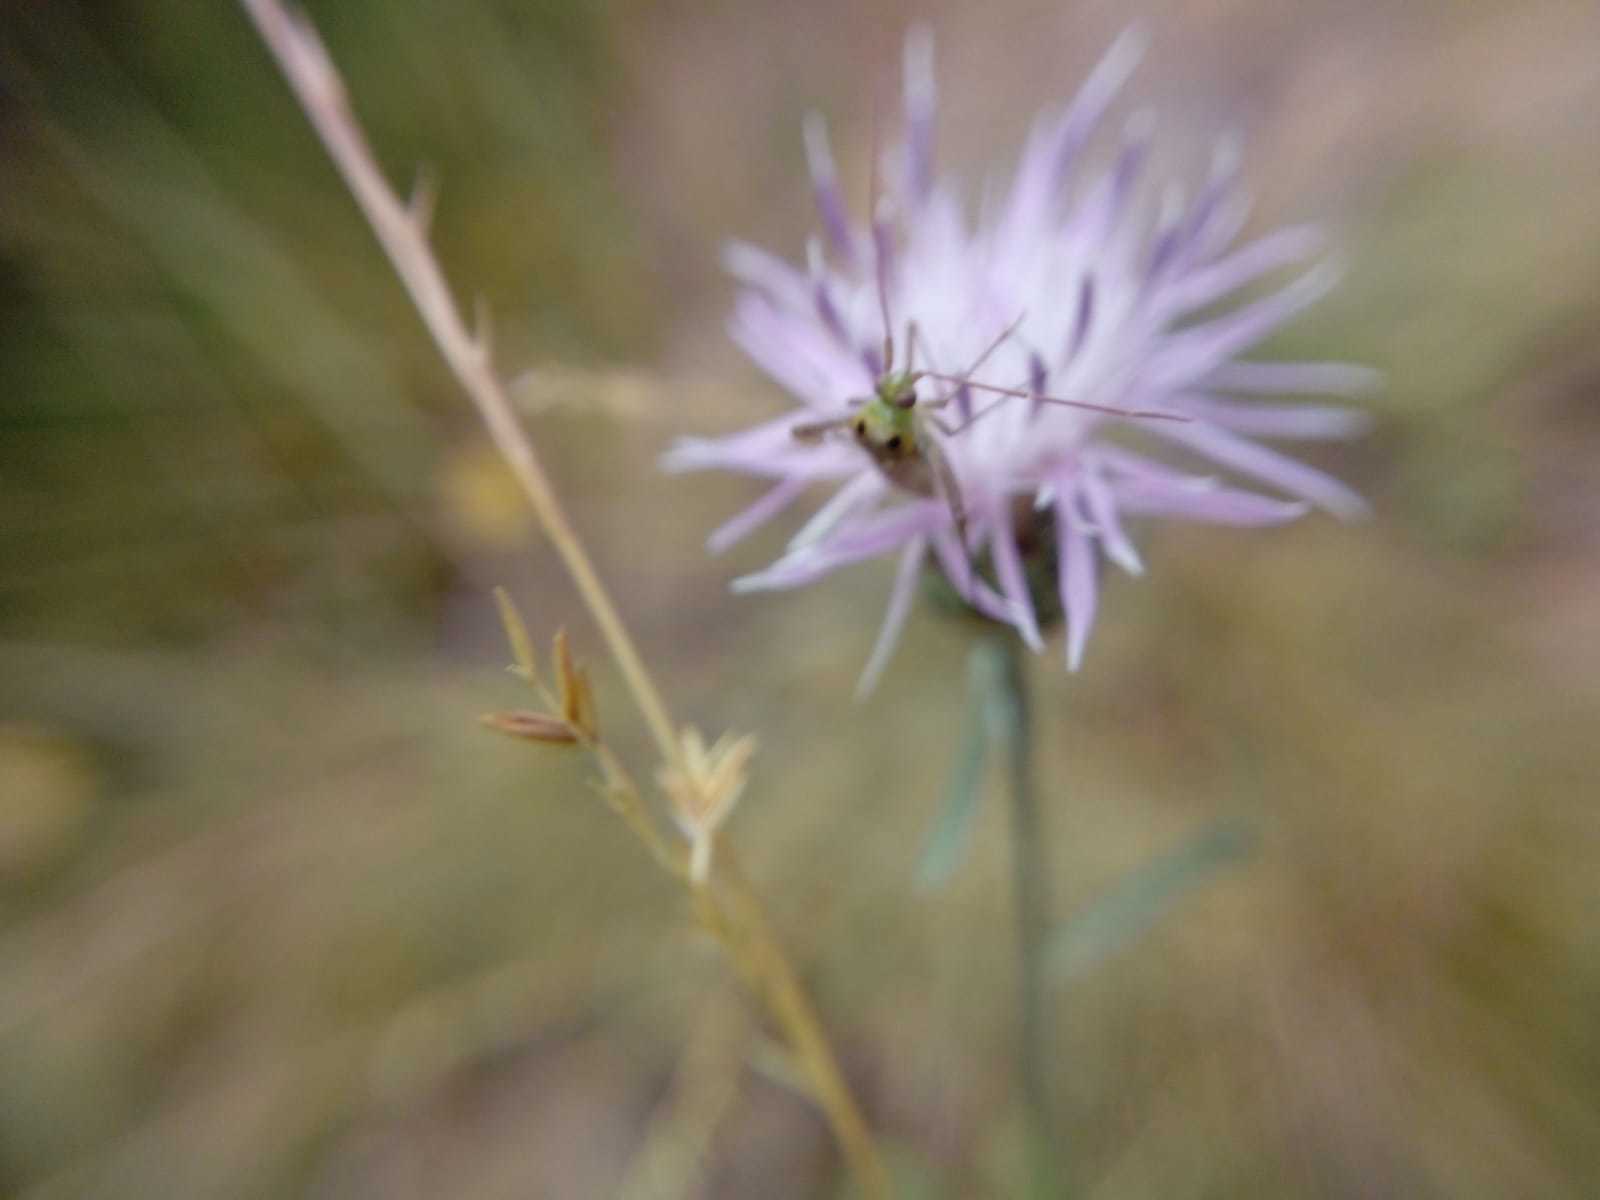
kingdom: Animalia
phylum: Arthropoda
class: Insecta
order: Hemiptera
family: Miridae
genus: Adelphocoris
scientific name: Adelphocoris lineolatus
